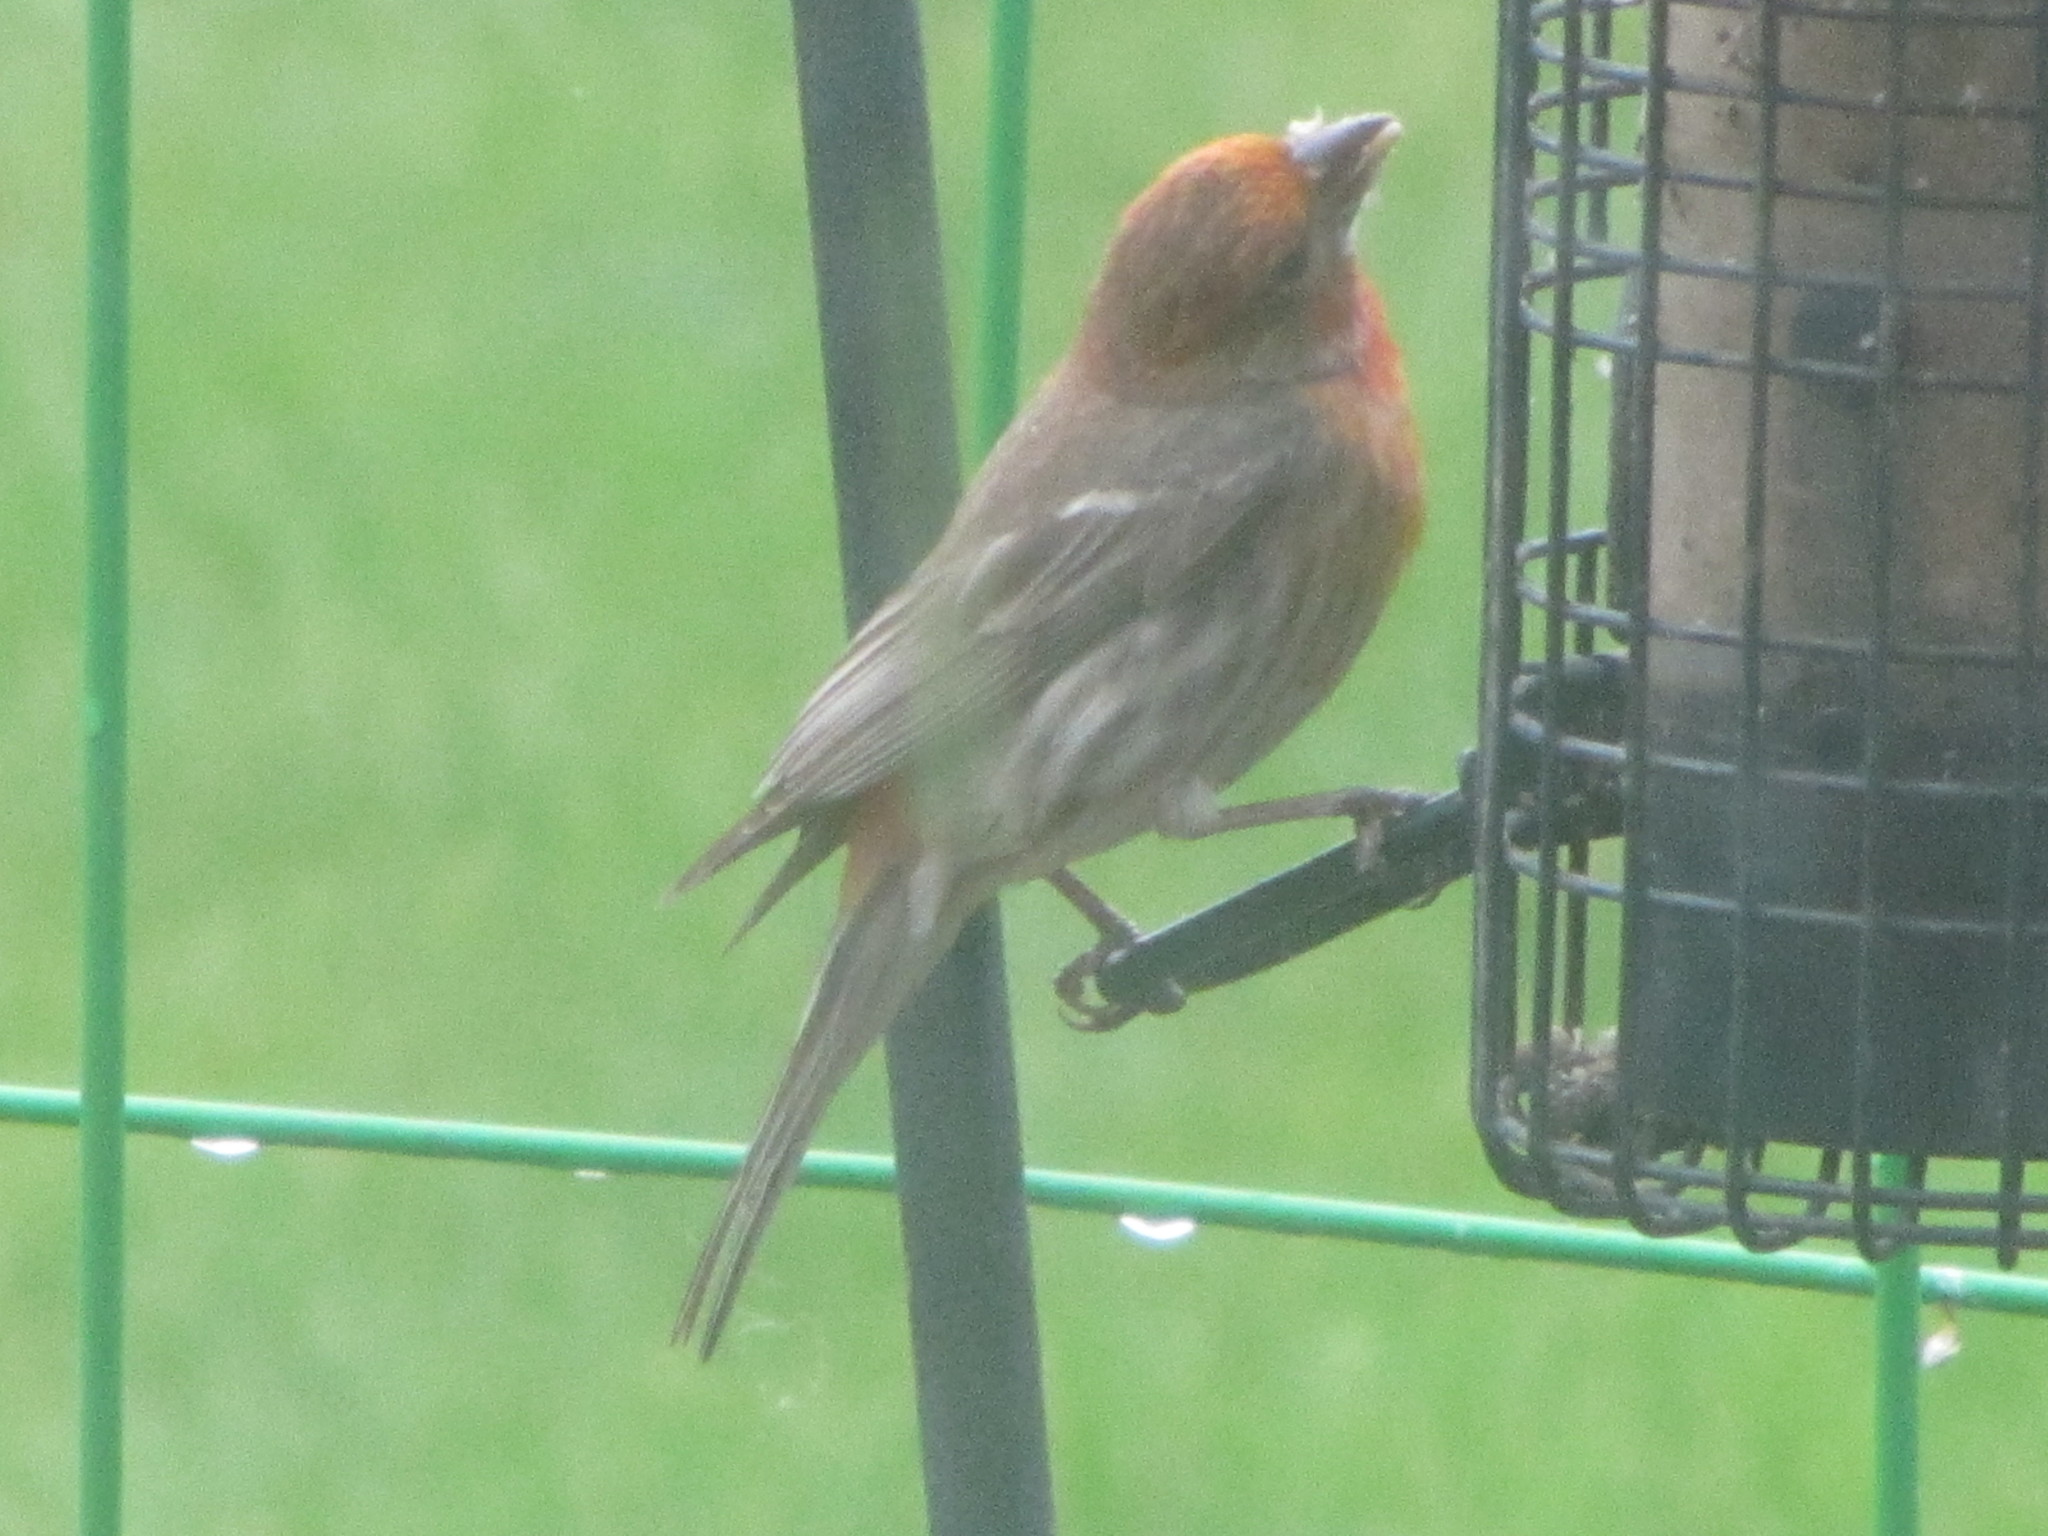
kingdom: Animalia
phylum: Chordata
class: Aves
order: Passeriformes
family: Fringillidae
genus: Haemorhous
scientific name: Haemorhous mexicanus
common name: House finch
